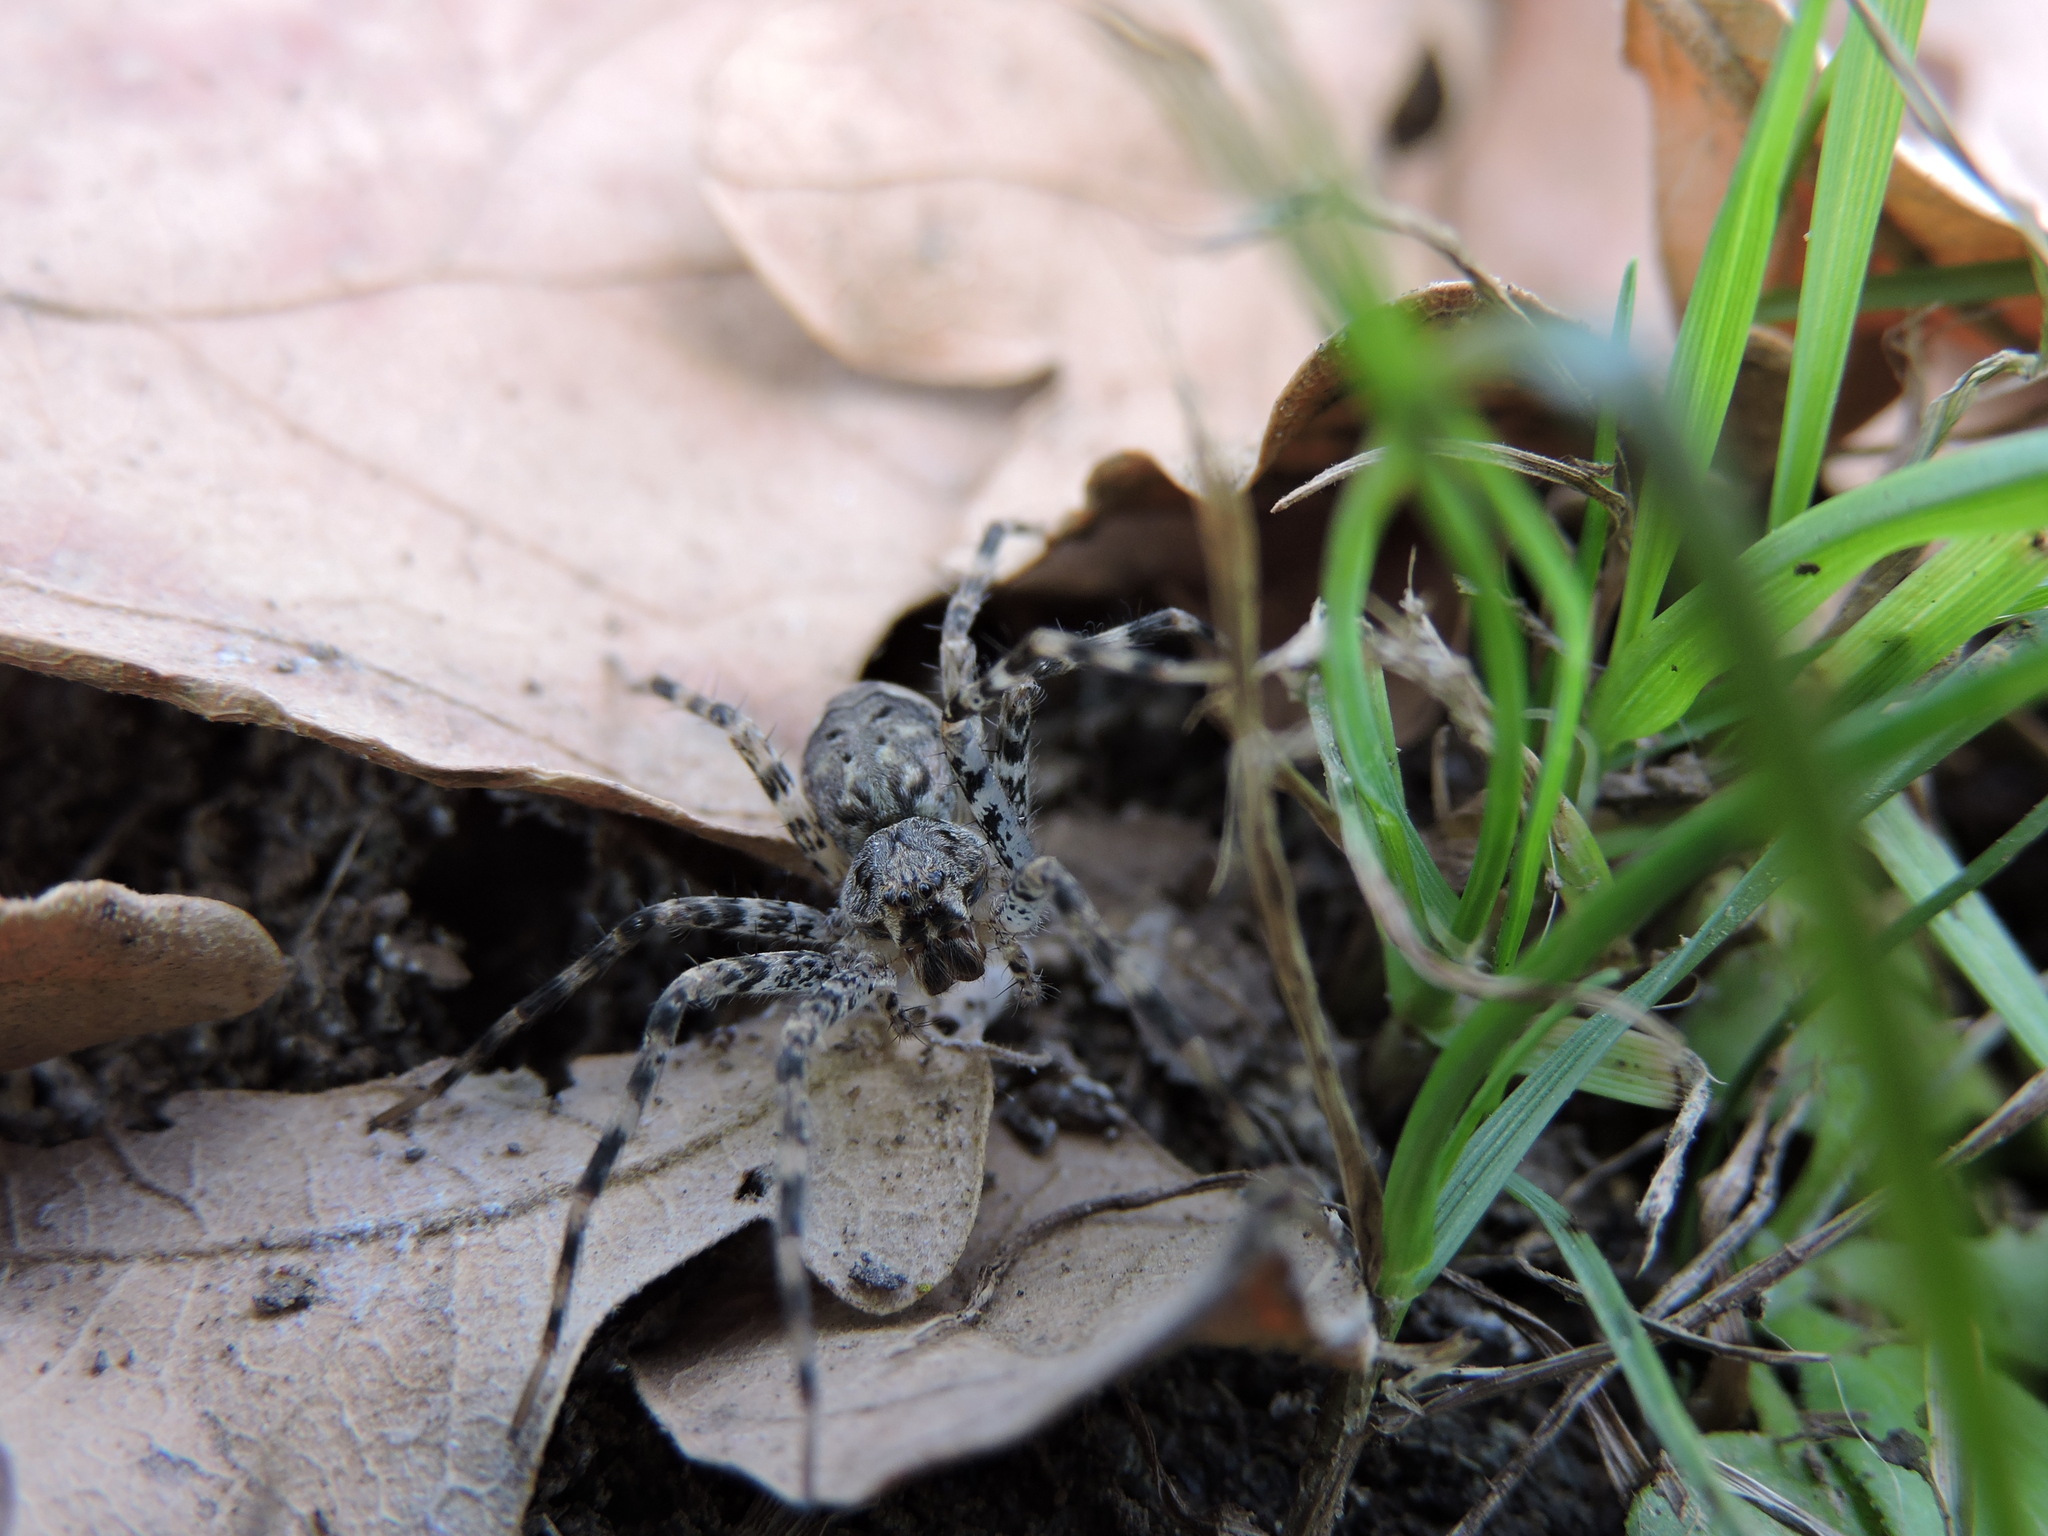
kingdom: Animalia
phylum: Arthropoda
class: Arachnida
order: Araneae
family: Pisauridae
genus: Dolomedes
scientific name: Dolomedes tenebrosus
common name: Dark fishing spider
